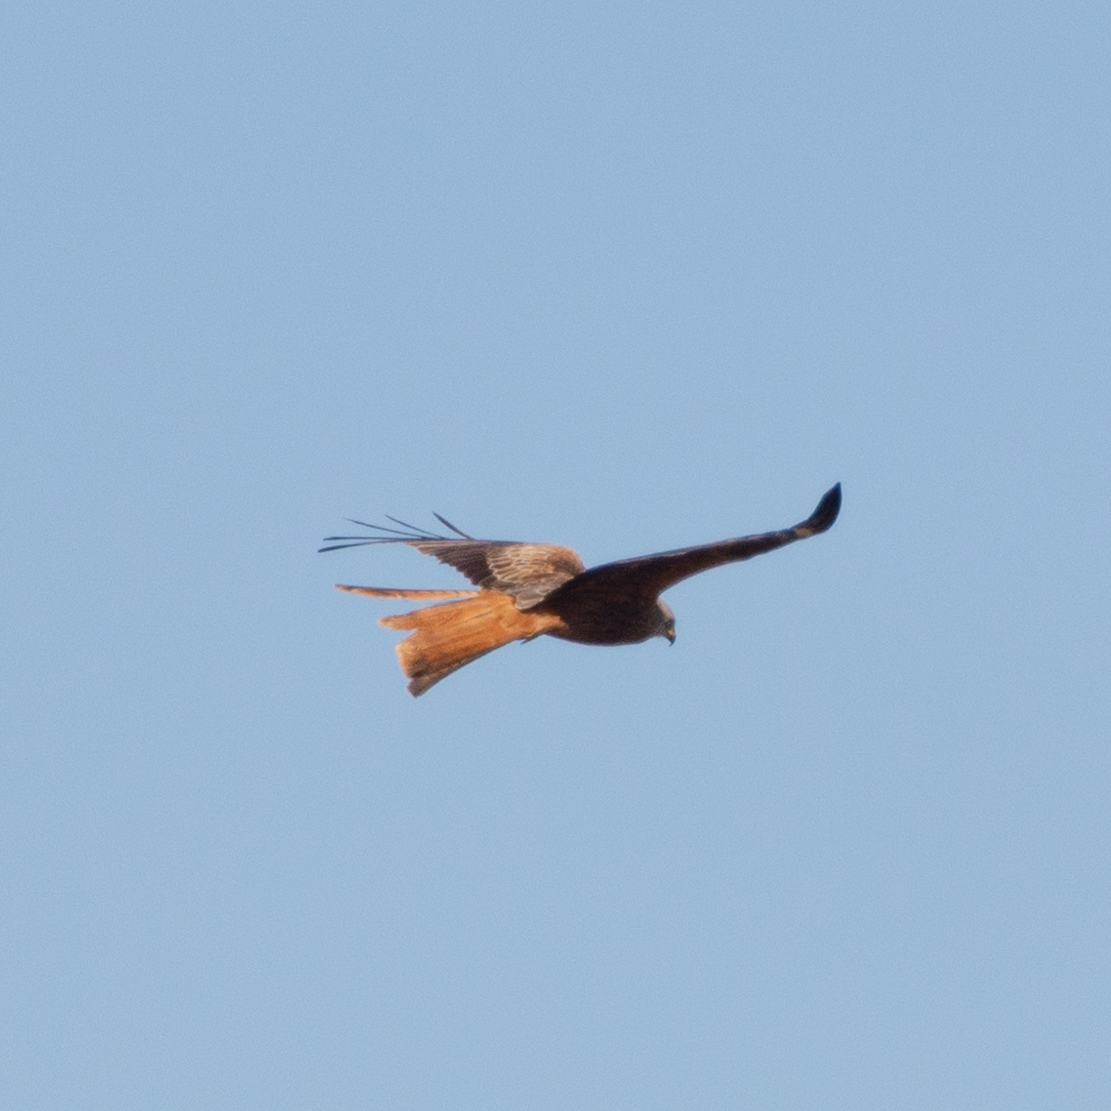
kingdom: Animalia
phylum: Chordata
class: Aves
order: Accipitriformes
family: Accipitridae
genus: Milvus
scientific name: Milvus milvus
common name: Red kite
